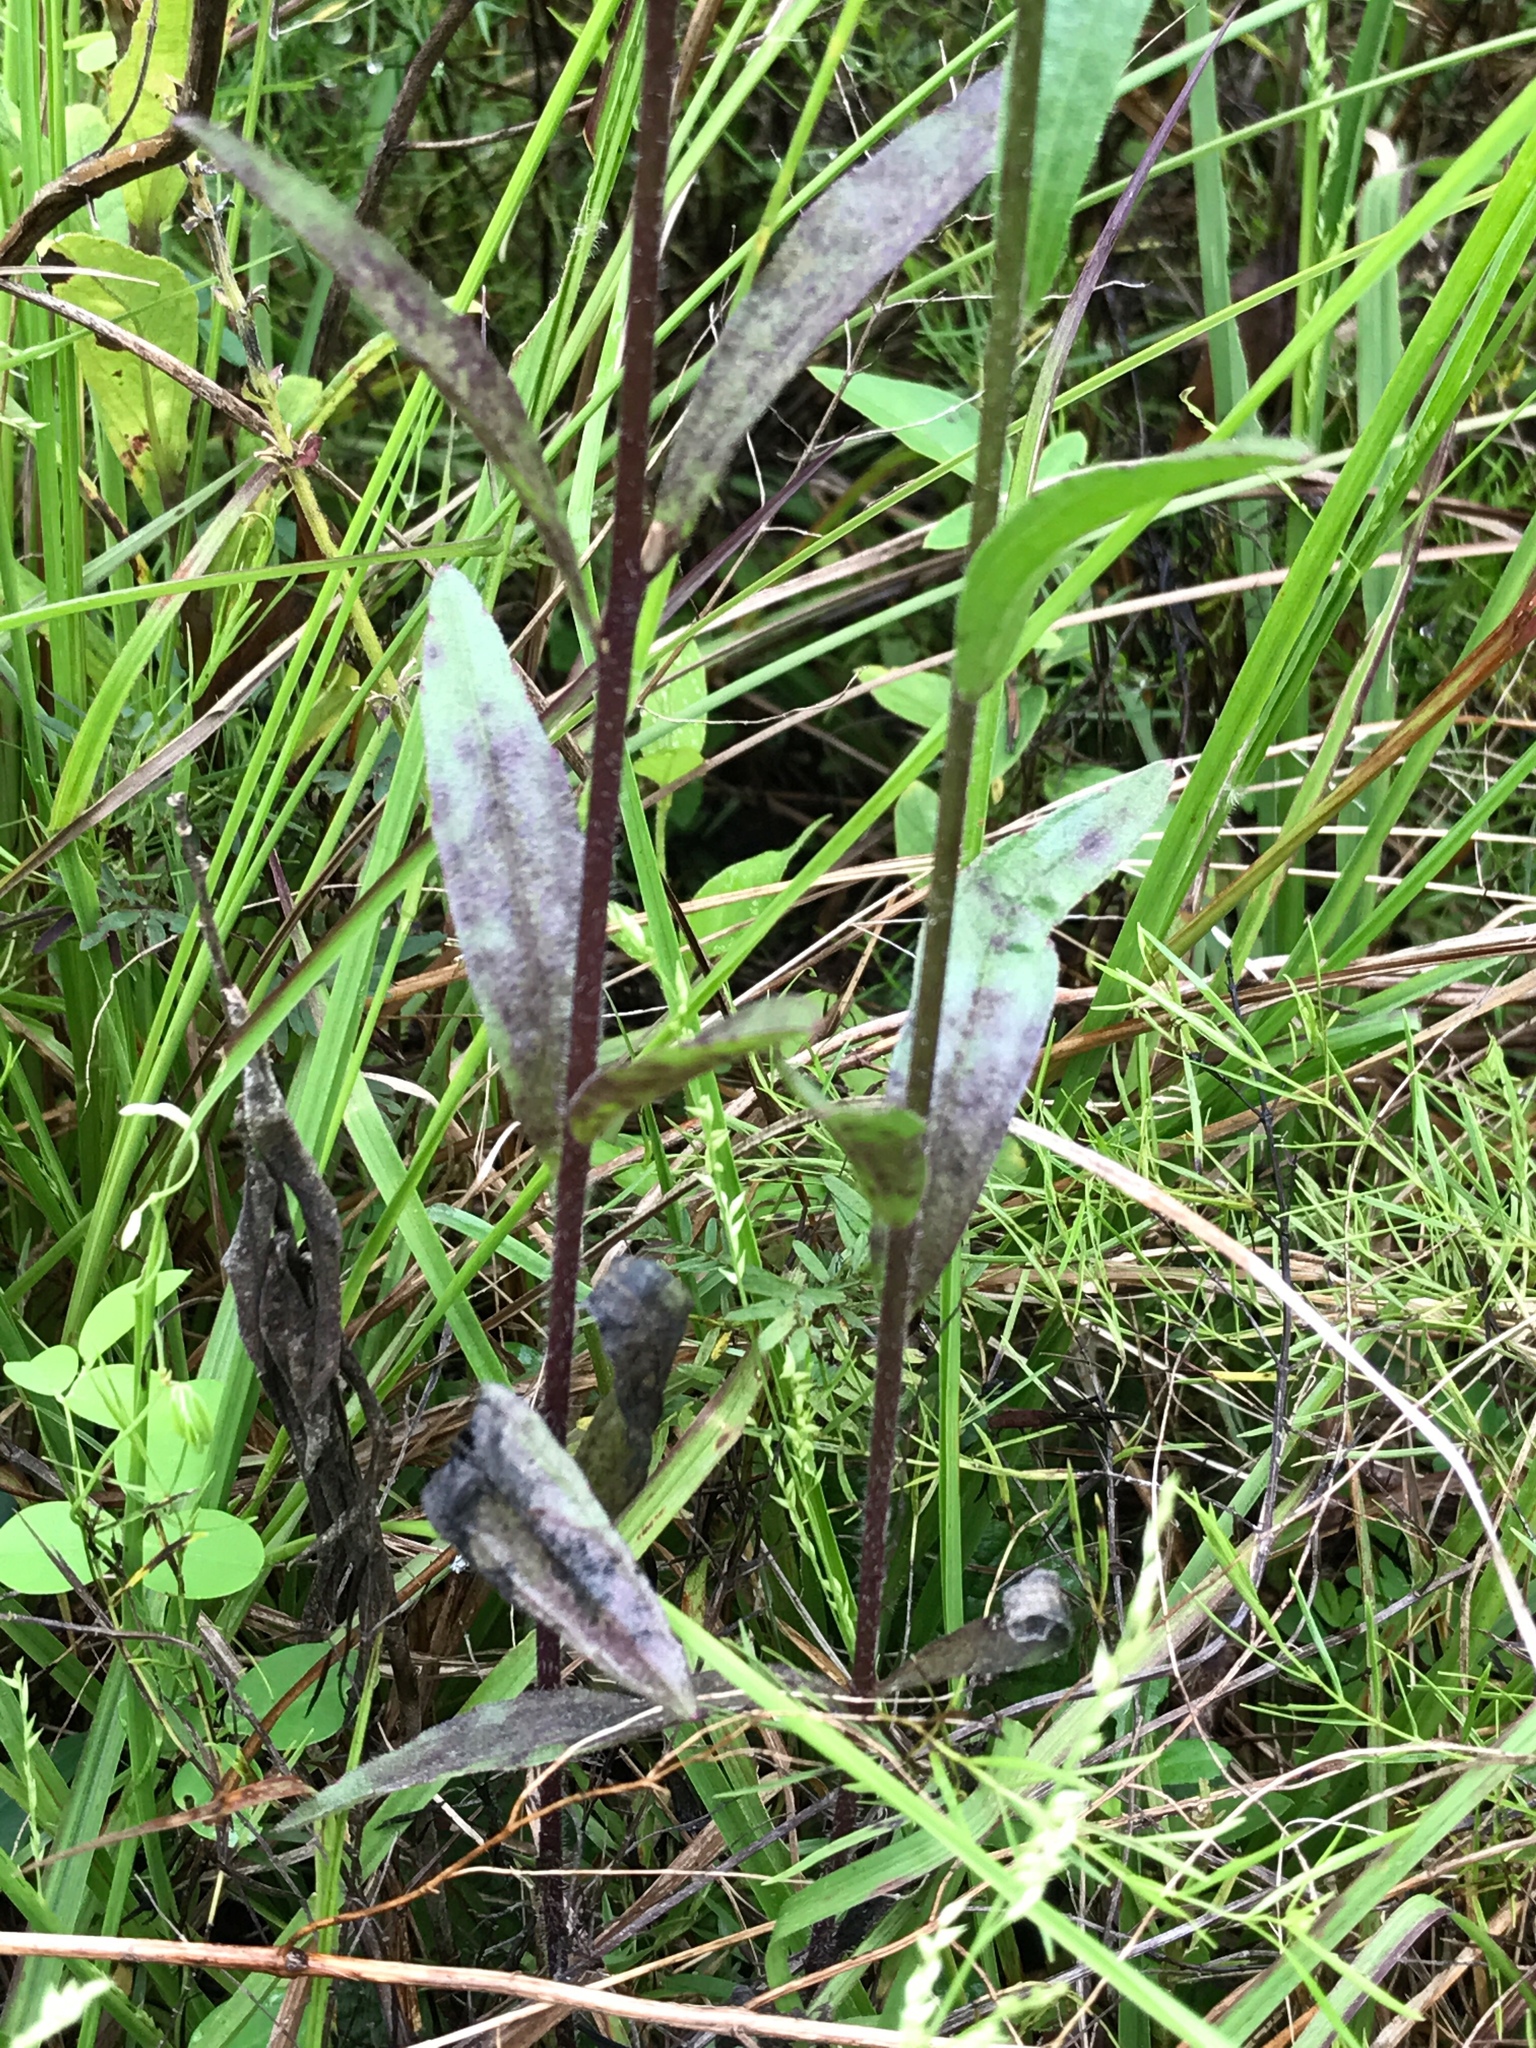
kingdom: Plantae
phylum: Tracheophyta
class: Magnoliopsida
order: Lamiales
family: Orobanchaceae
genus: Buchnera
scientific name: Buchnera floridana
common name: Florida bluehearts
